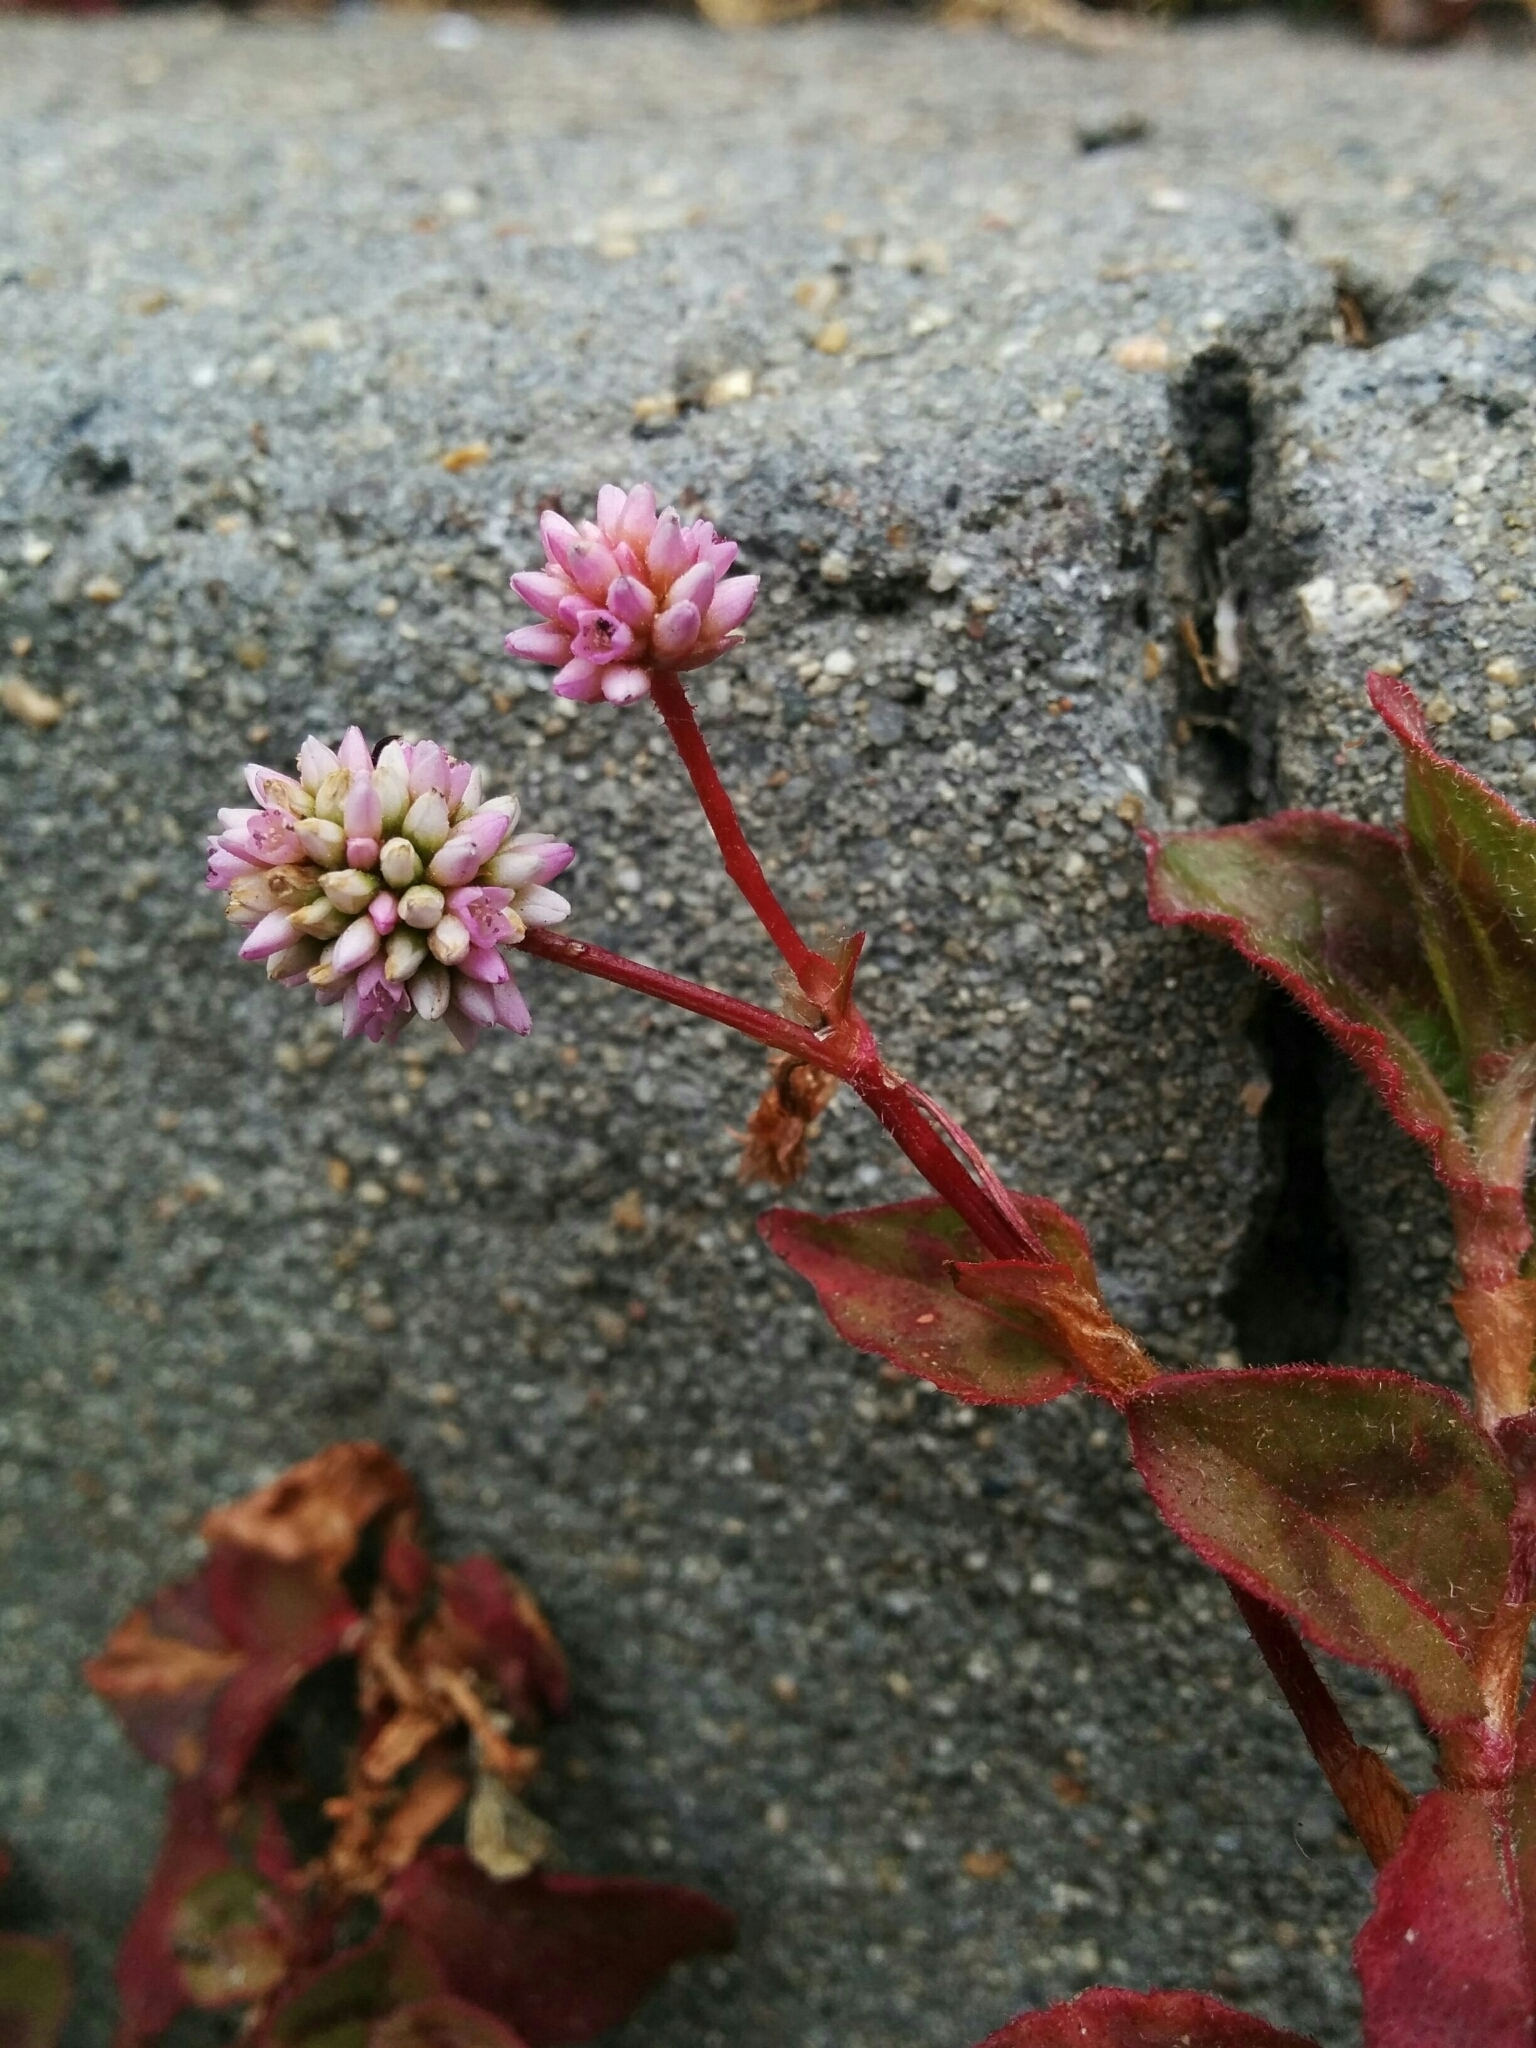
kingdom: Plantae
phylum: Tracheophyta
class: Magnoliopsida
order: Caryophyllales
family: Polygonaceae
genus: Persicaria
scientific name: Persicaria capitata
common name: Pinkhead smartweed
